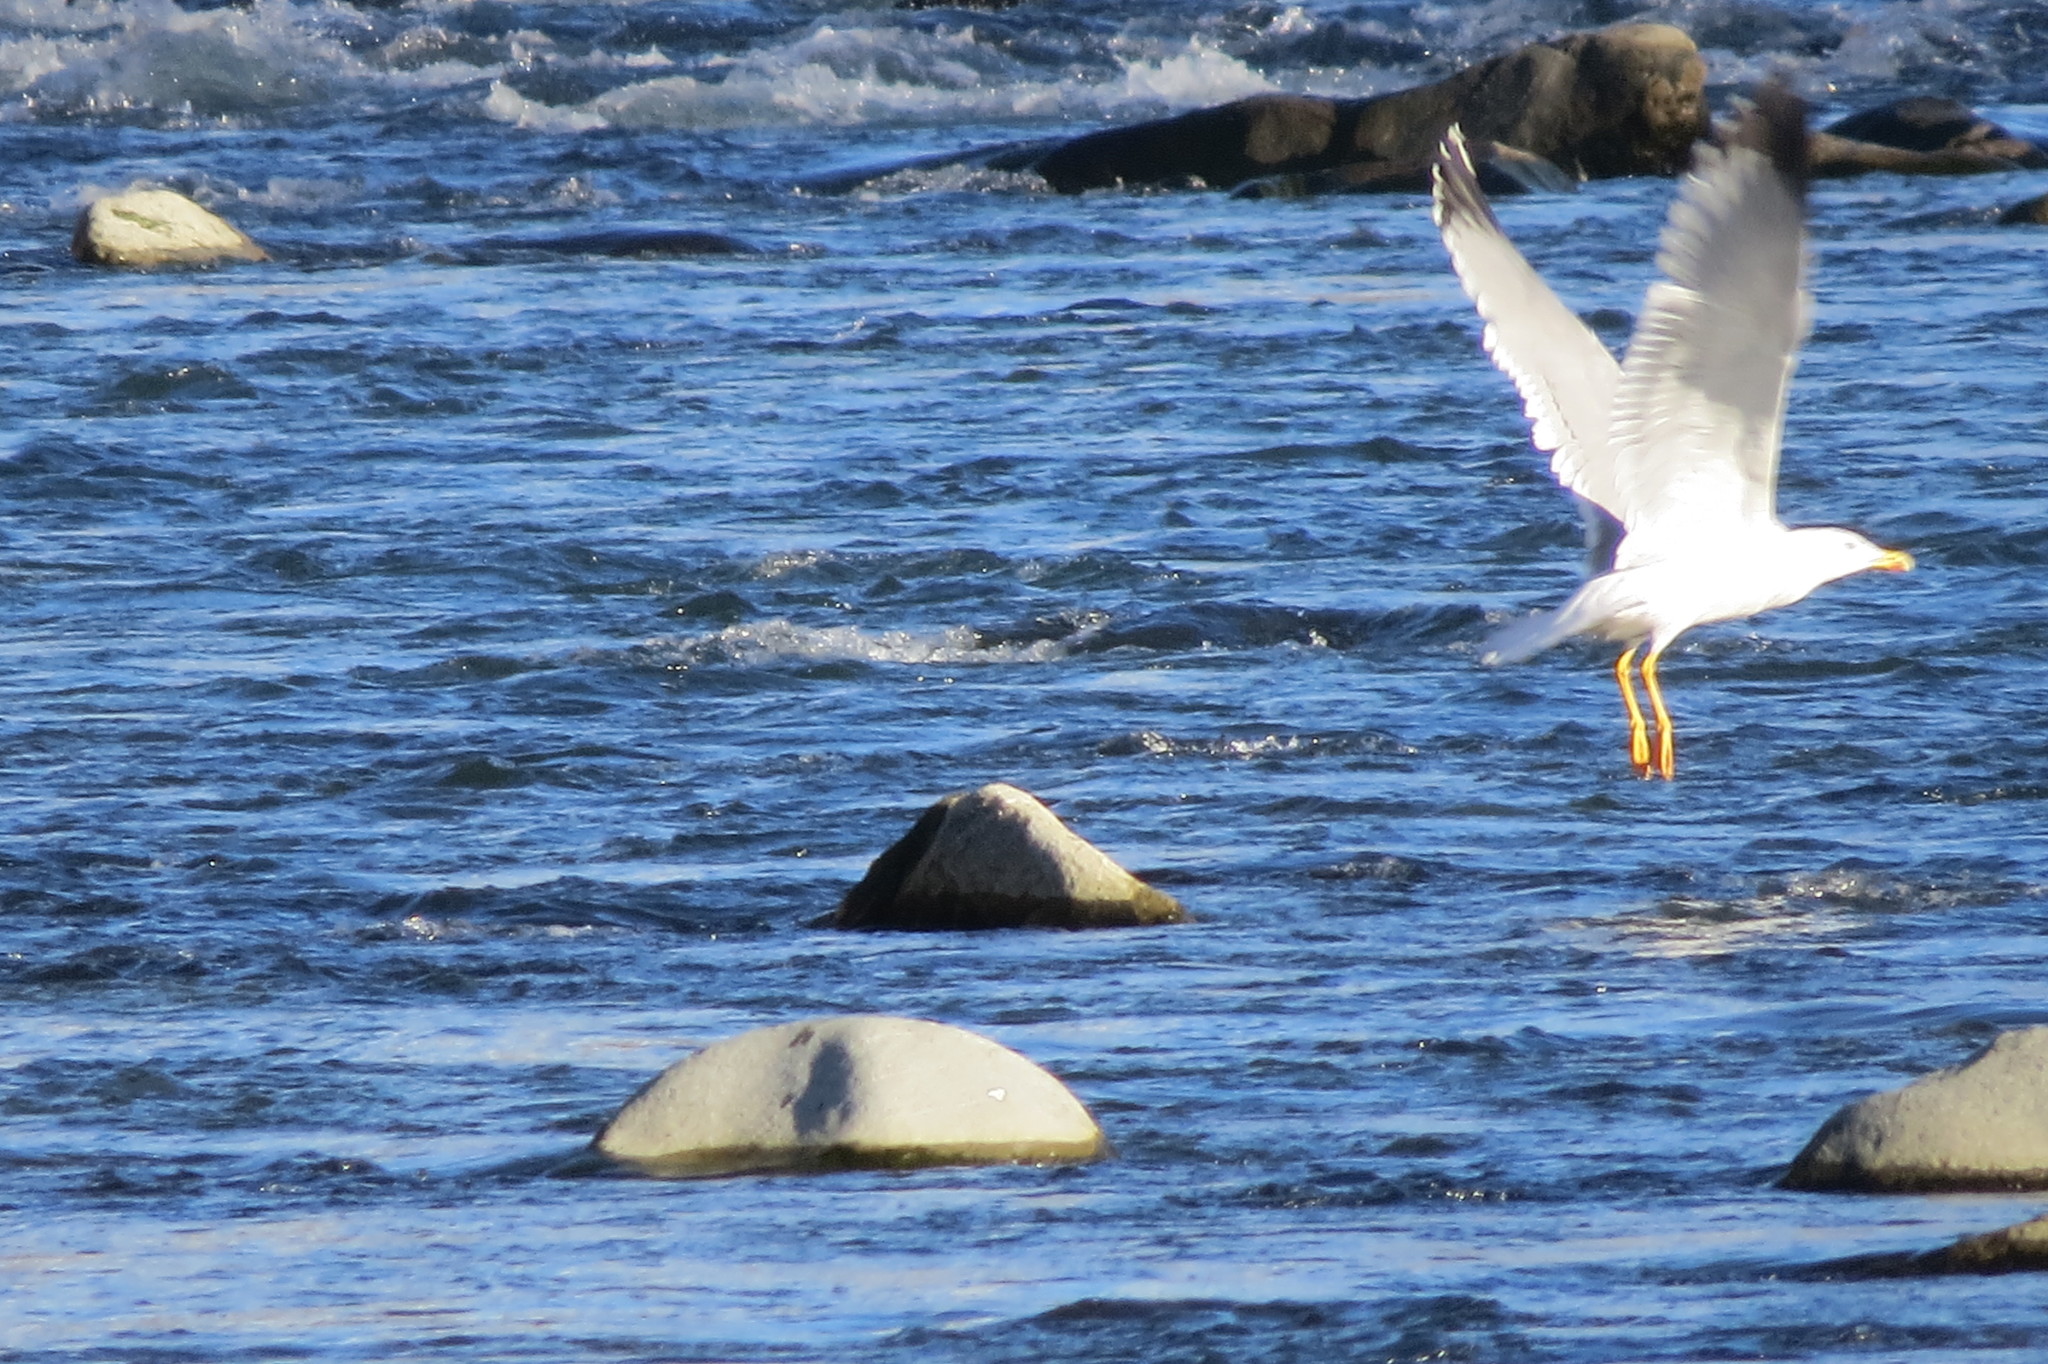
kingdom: Animalia
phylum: Chordata
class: Aves
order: Charadriiformes
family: Laridae
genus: Larus
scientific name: Larus michahellis
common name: Yellow-legged gull
